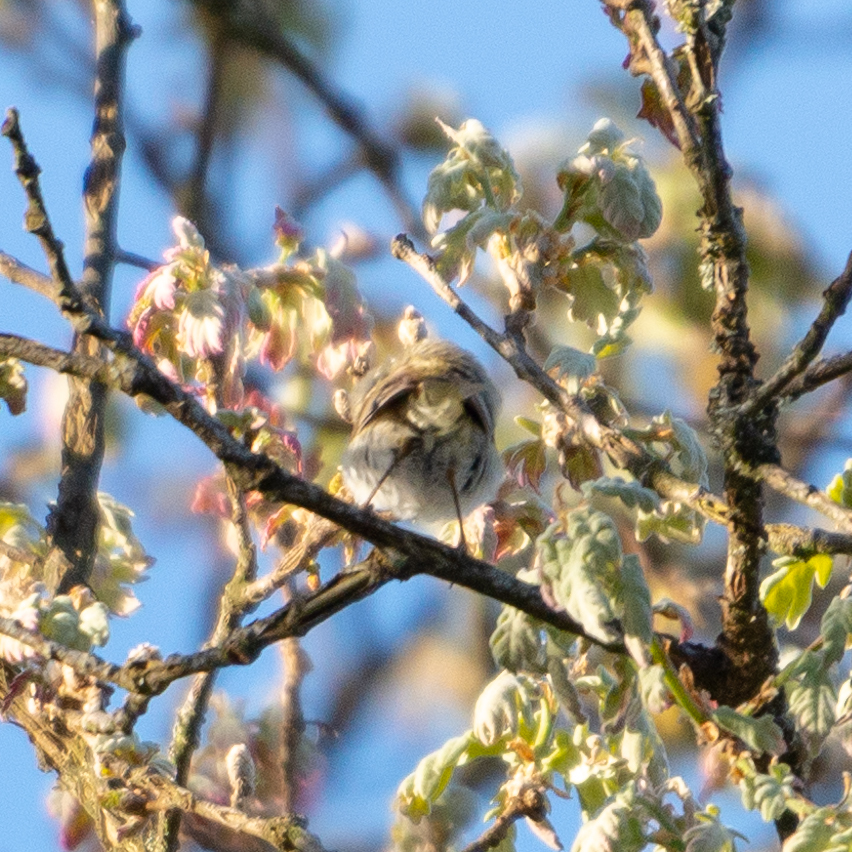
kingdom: Animalia
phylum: Chordata
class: Aves
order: Passeriformes
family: Phylloscopidae
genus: Phylloscopus
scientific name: Phylloscopus ibericus
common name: Iberian chiffchaff
